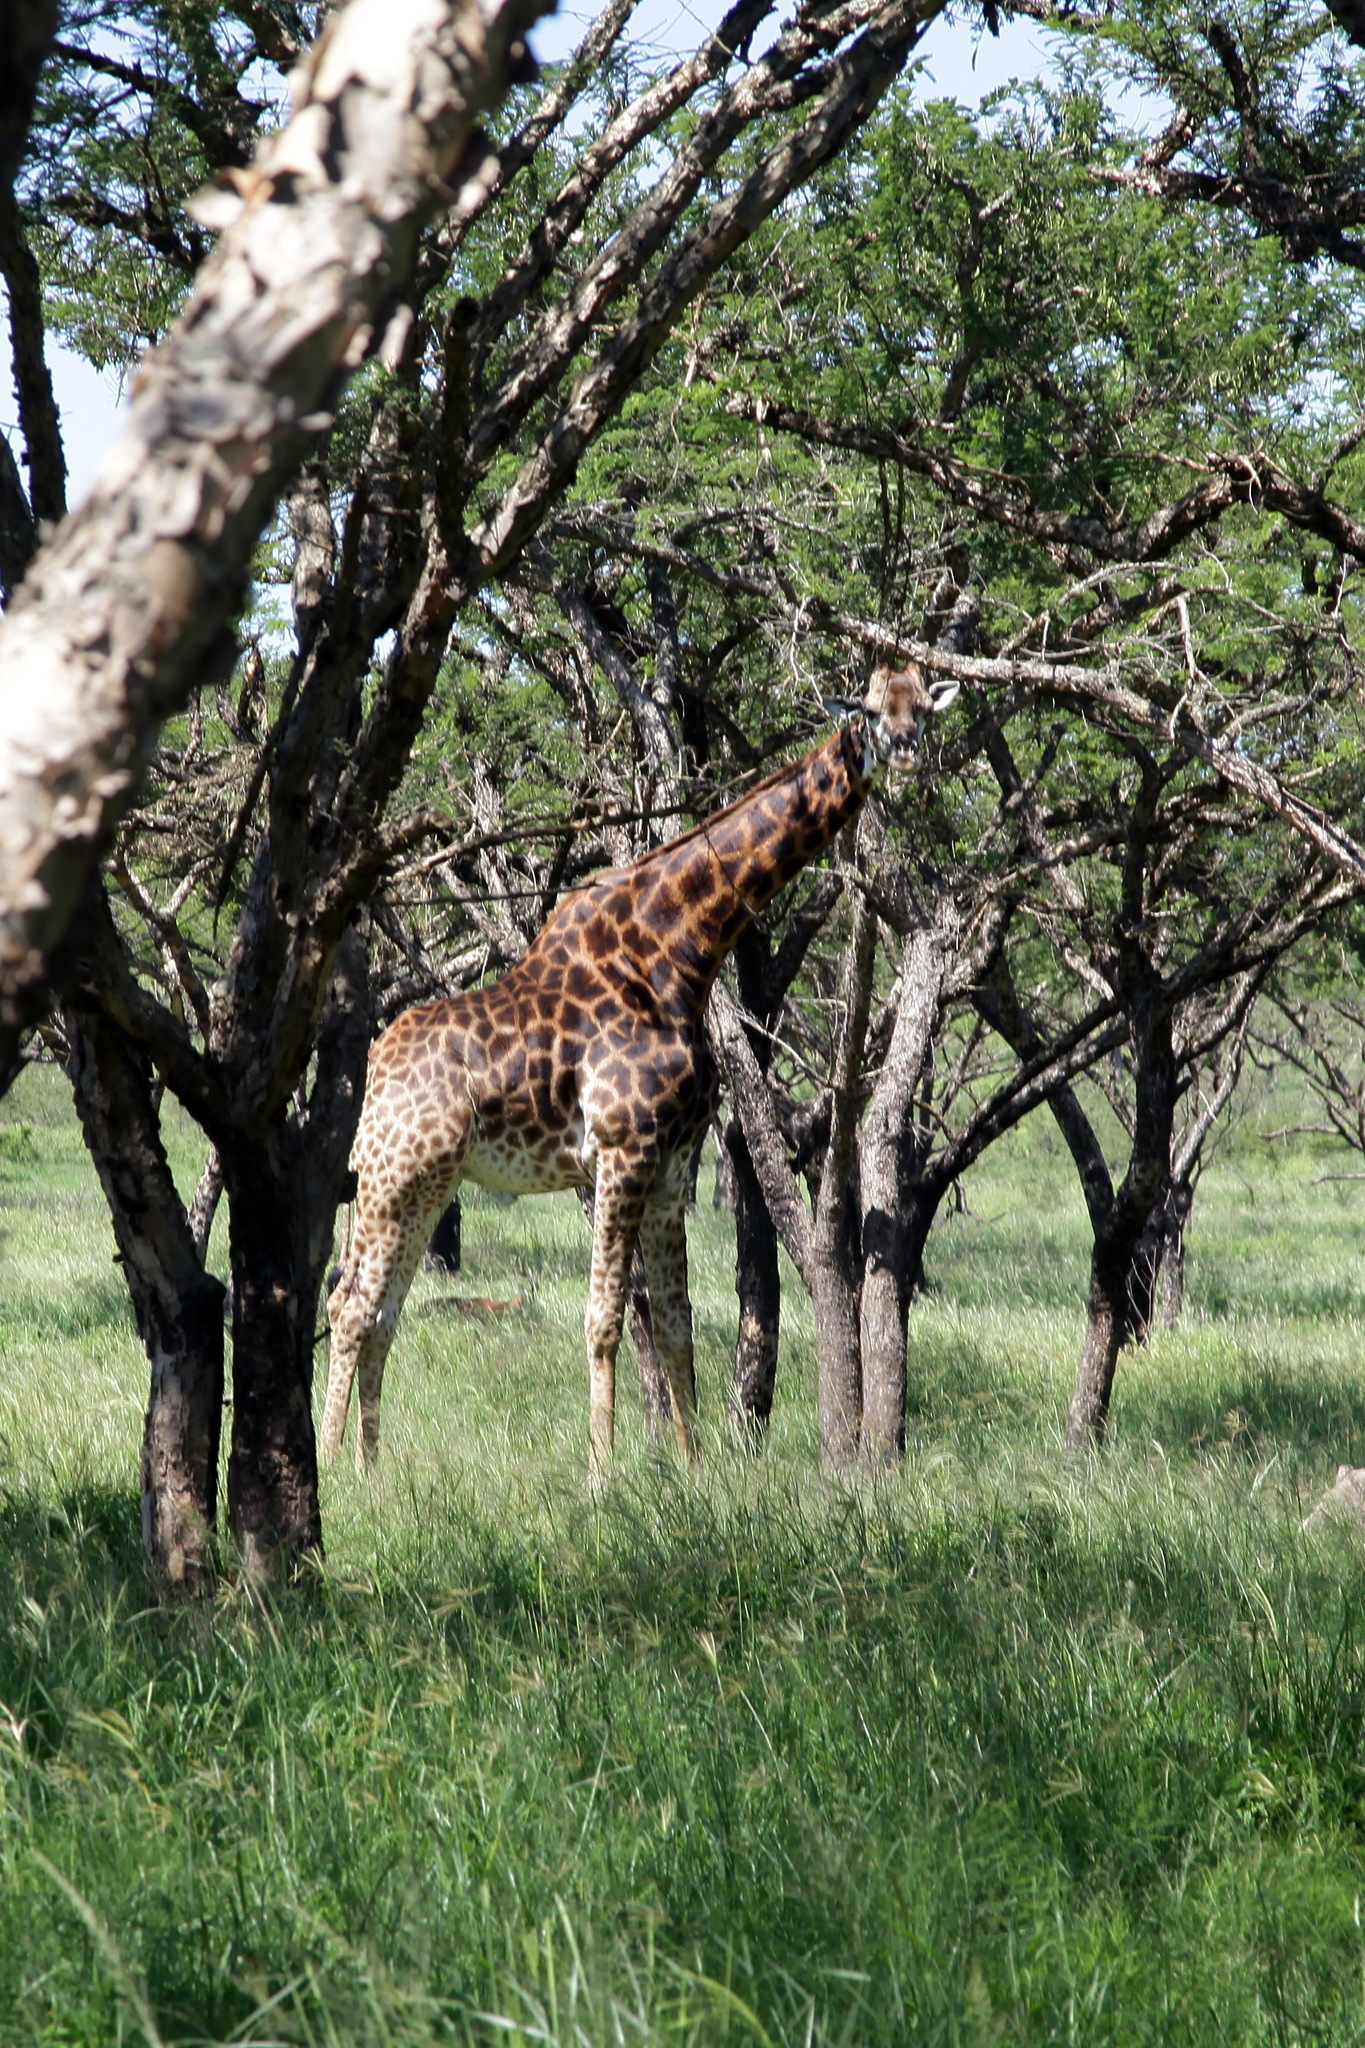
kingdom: Animalia
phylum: Chordata
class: Mammalia
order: Artiodactyla
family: Giraffidae
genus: Giraffa
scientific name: Giraffa giraffa
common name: Southern giraffe
